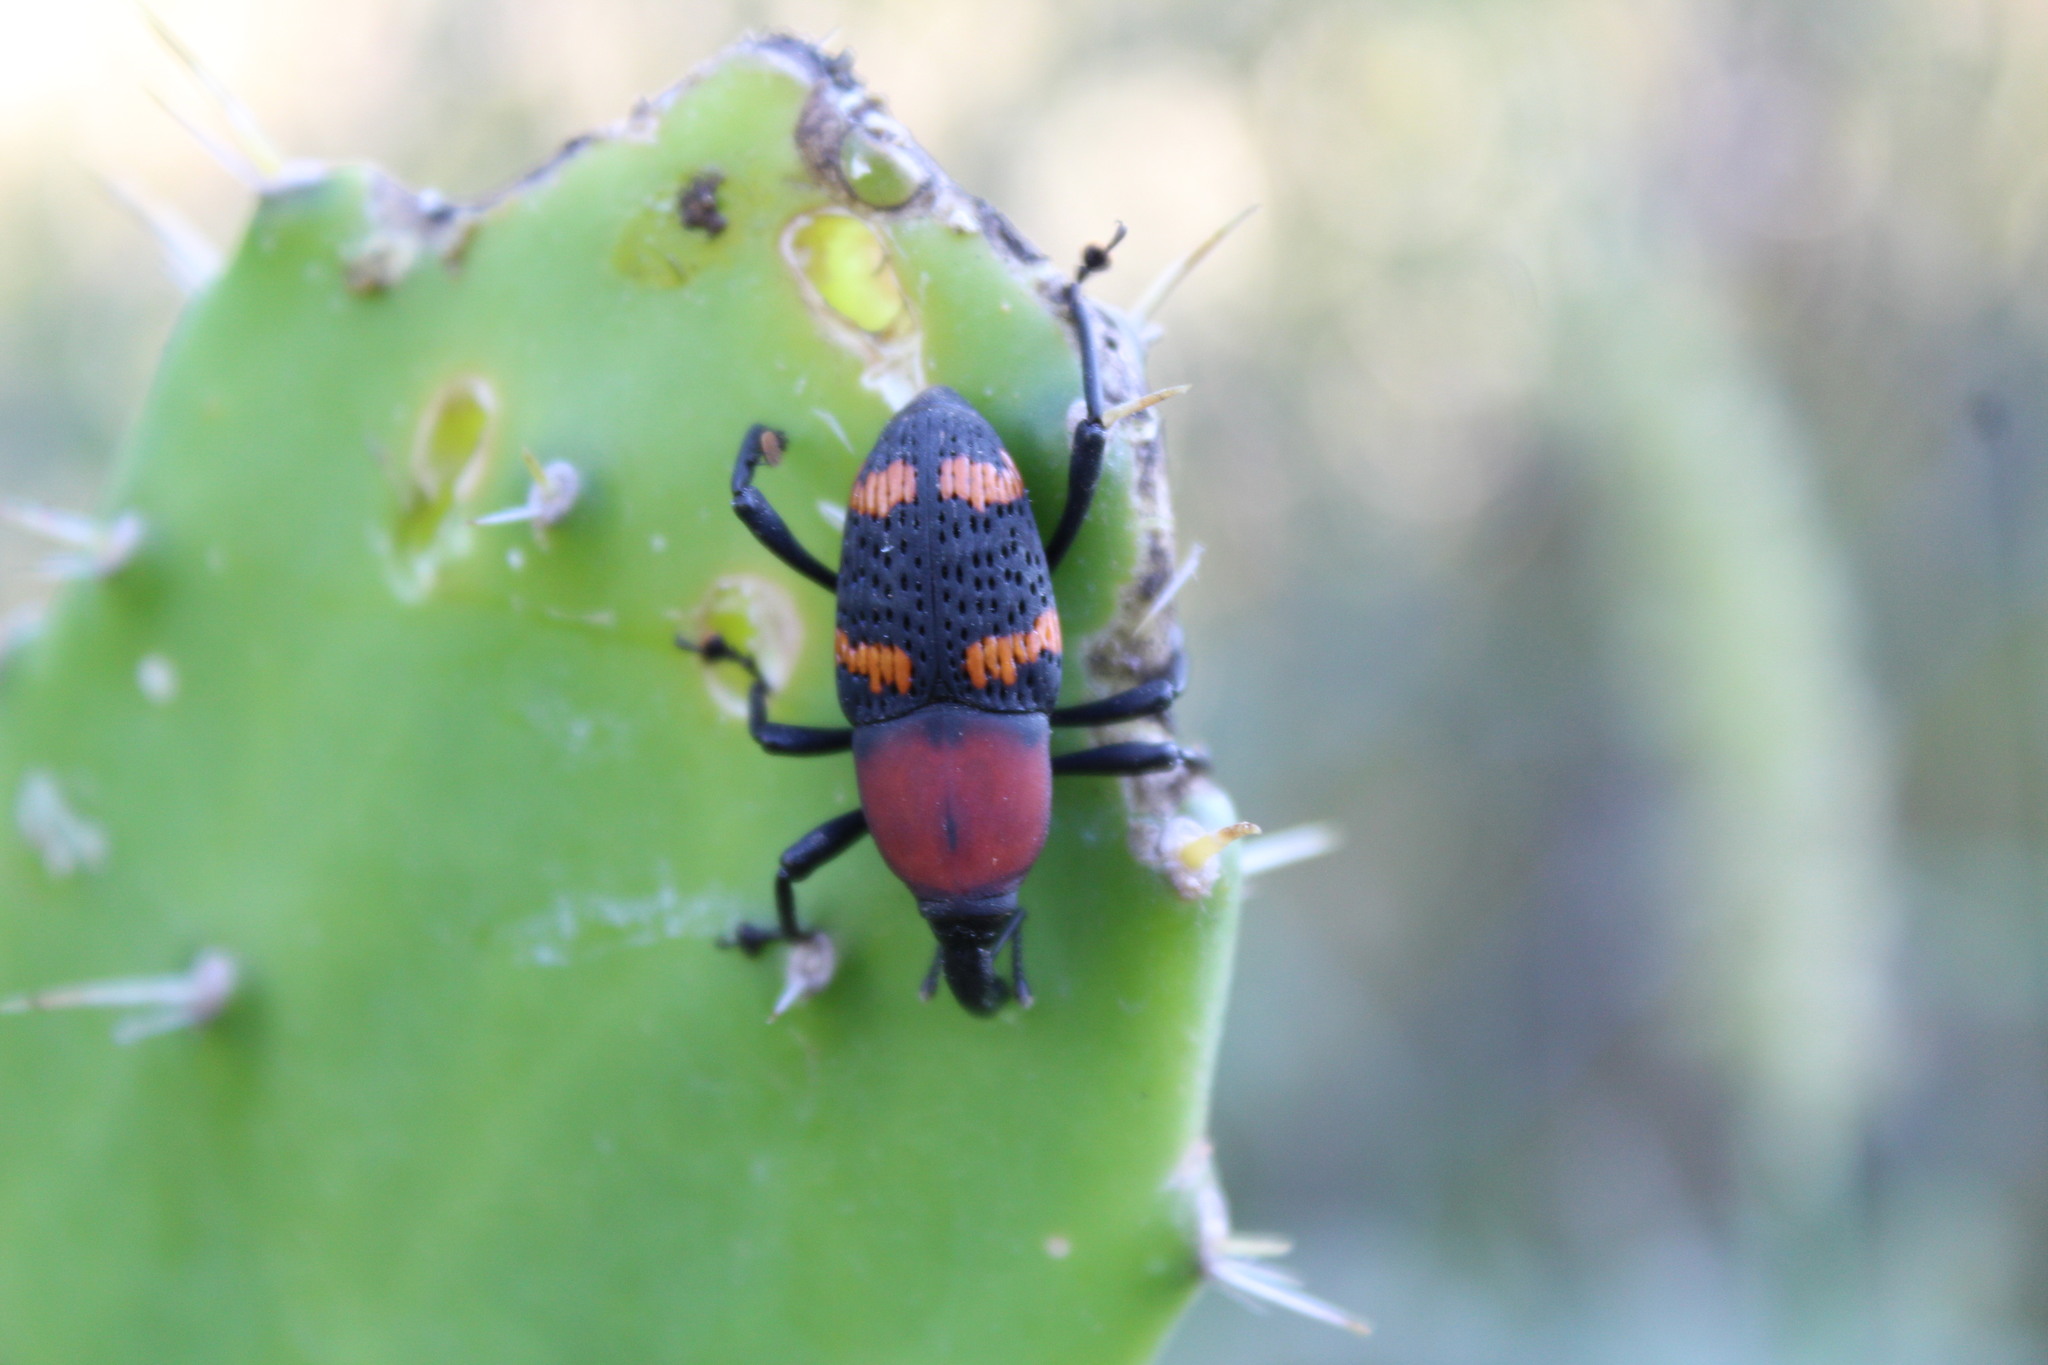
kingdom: Animalia
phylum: Arthropoda
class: Insecta
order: Coleoptera
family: Dryophthoridae
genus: Cactophagus
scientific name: Cactophagus
